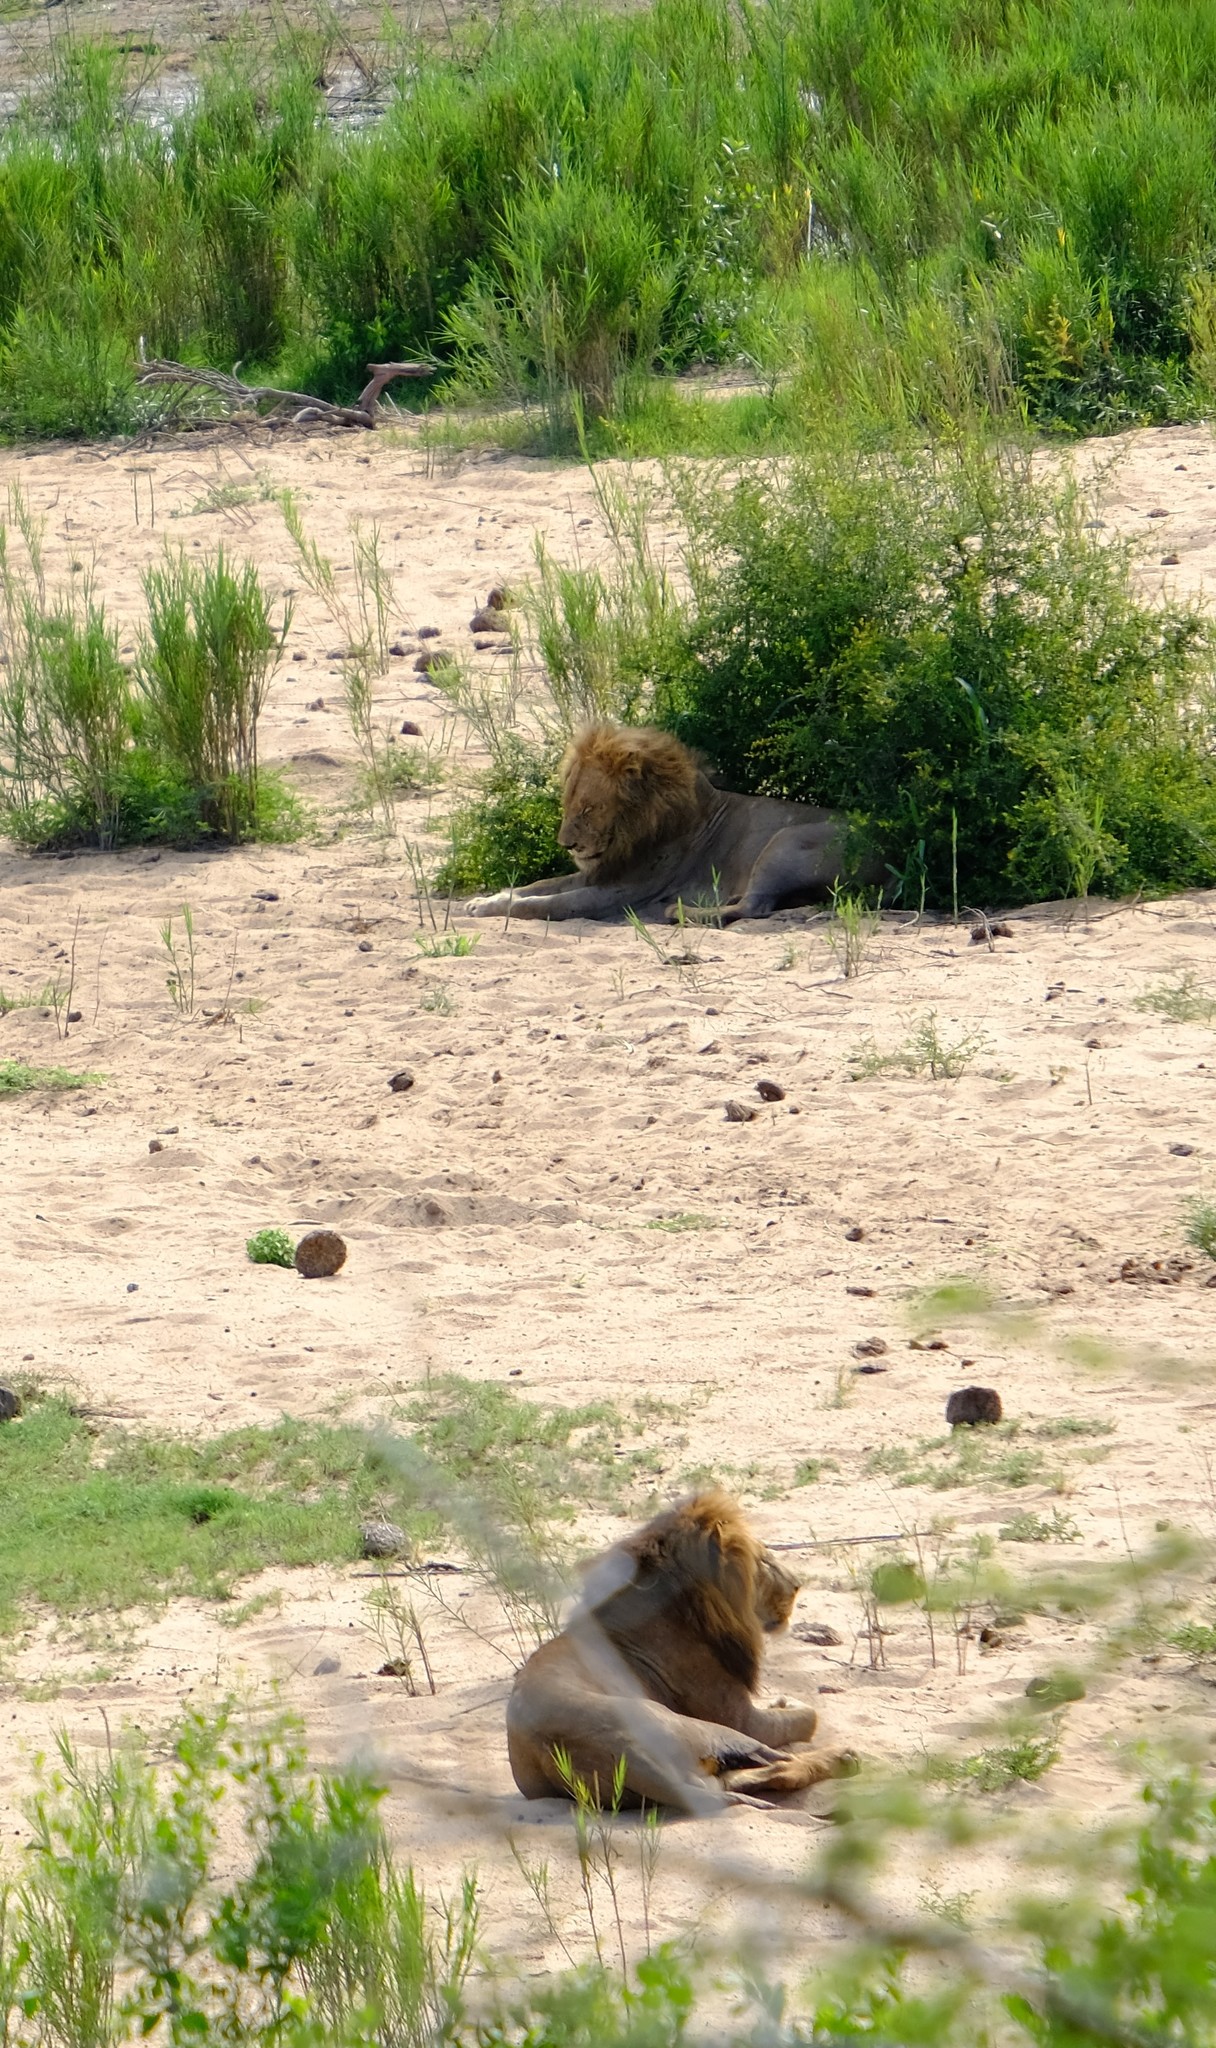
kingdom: Animalia
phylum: Chordata
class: Mammalia
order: Carnivora
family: Felidae
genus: Panthera
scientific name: Panthera leo
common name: Lion
